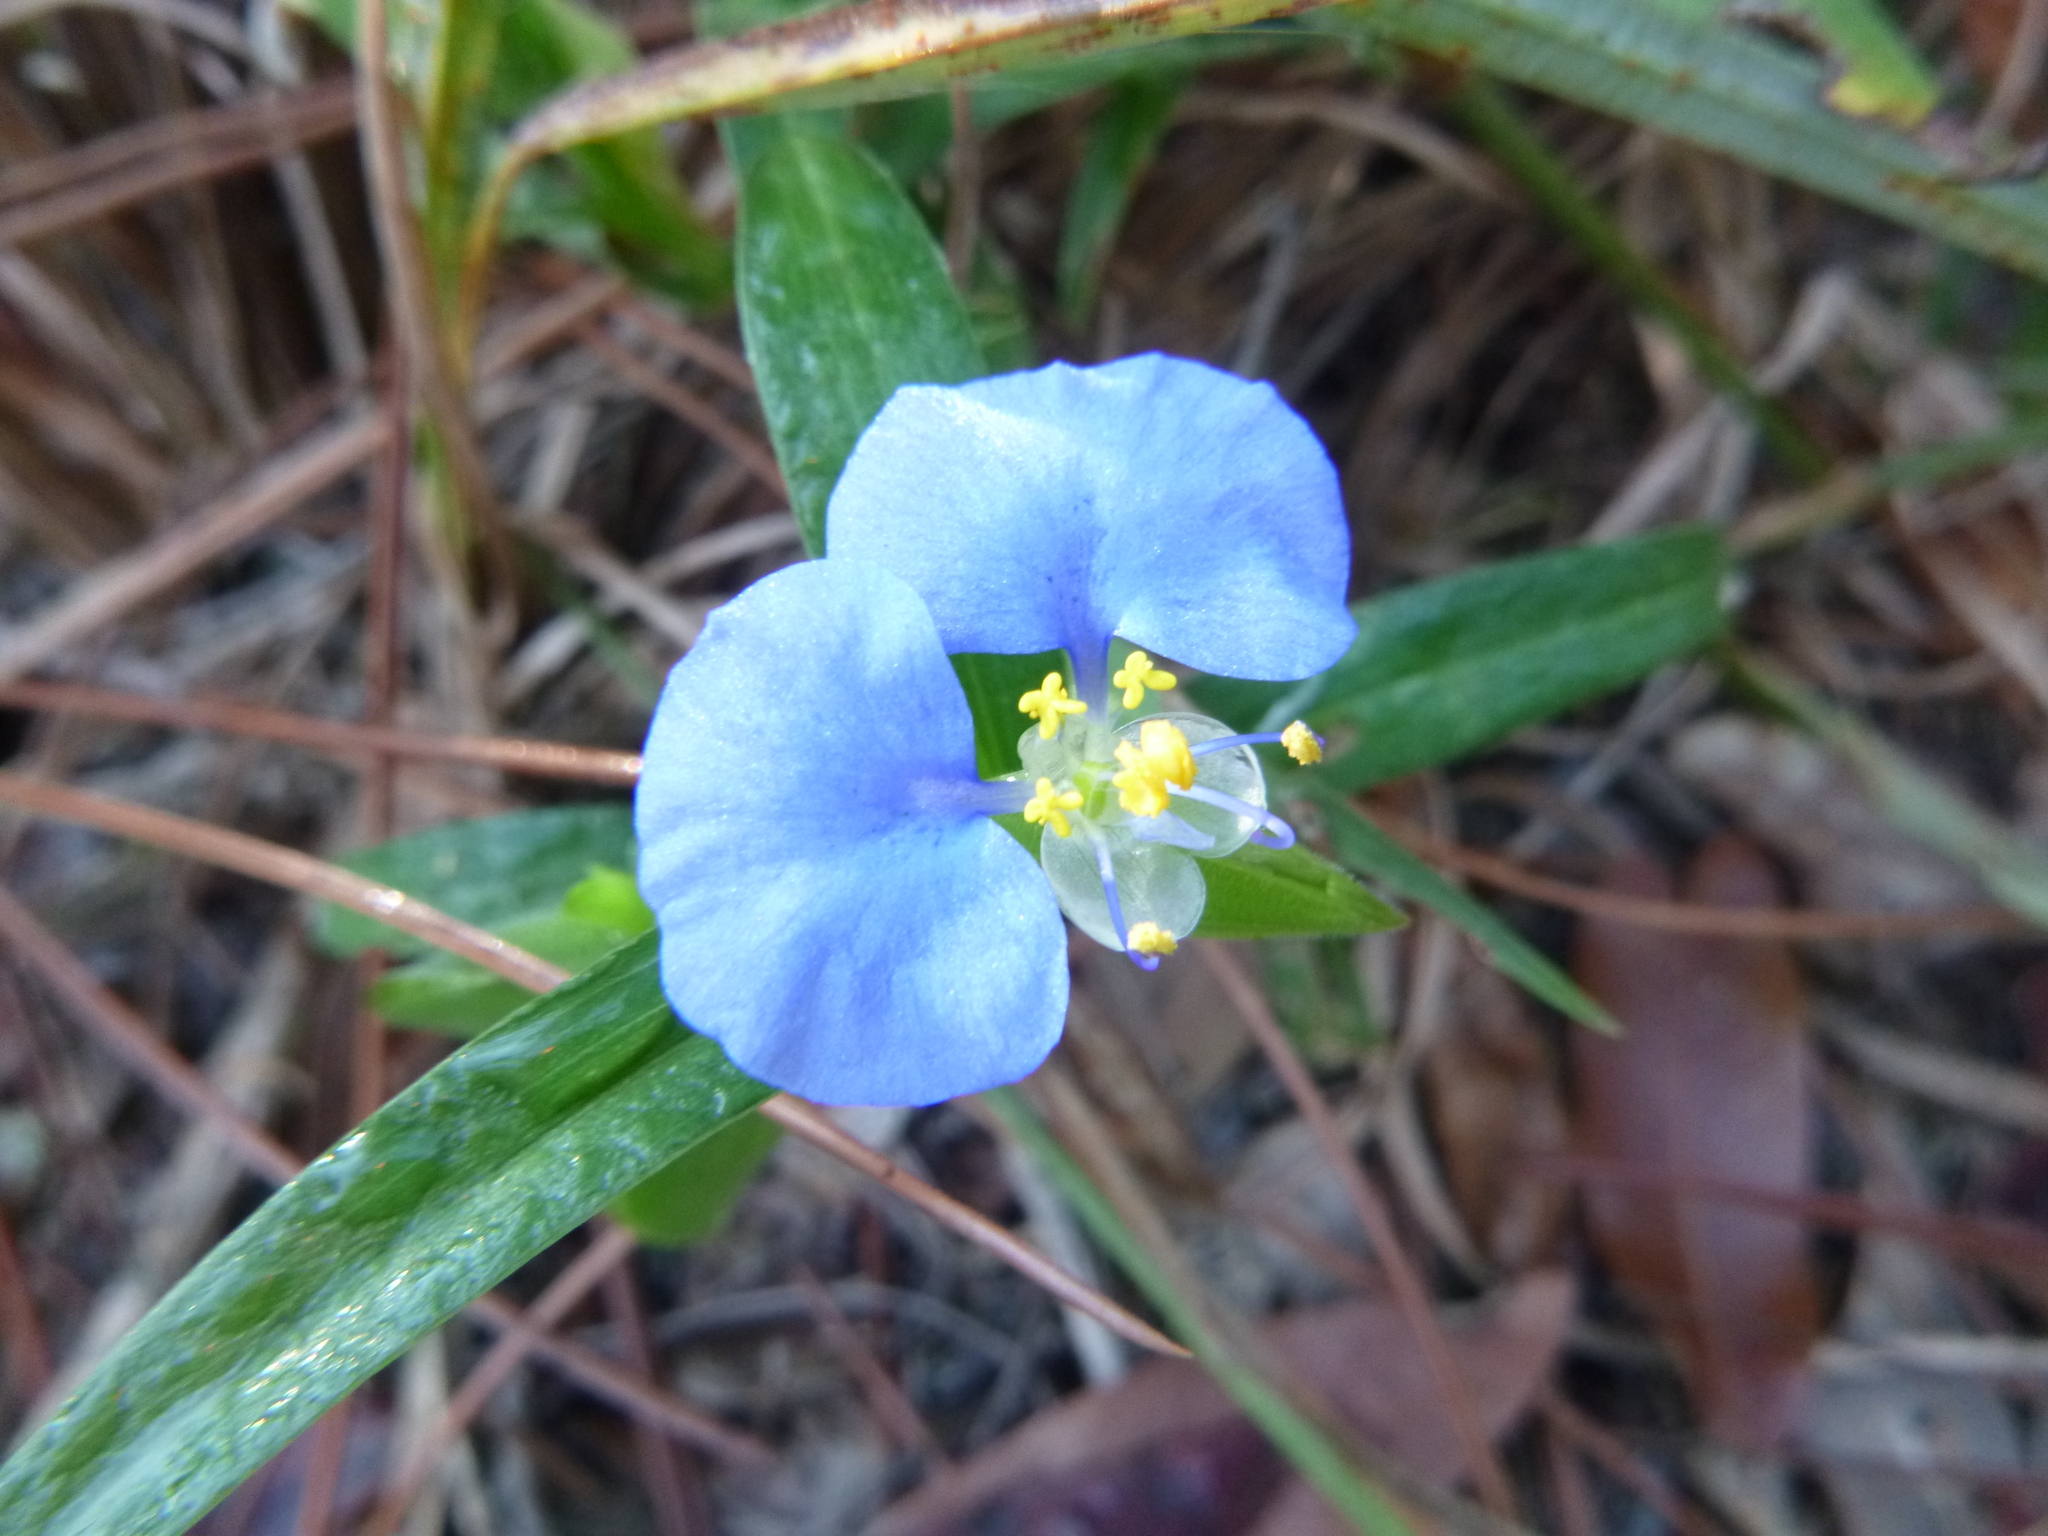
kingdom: Plantae
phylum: Tracheophyta
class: Liliopsida
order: Commelinales
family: Commelinaceae
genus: Commelina
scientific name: Commelina erecta
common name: Blousel blommetjie
